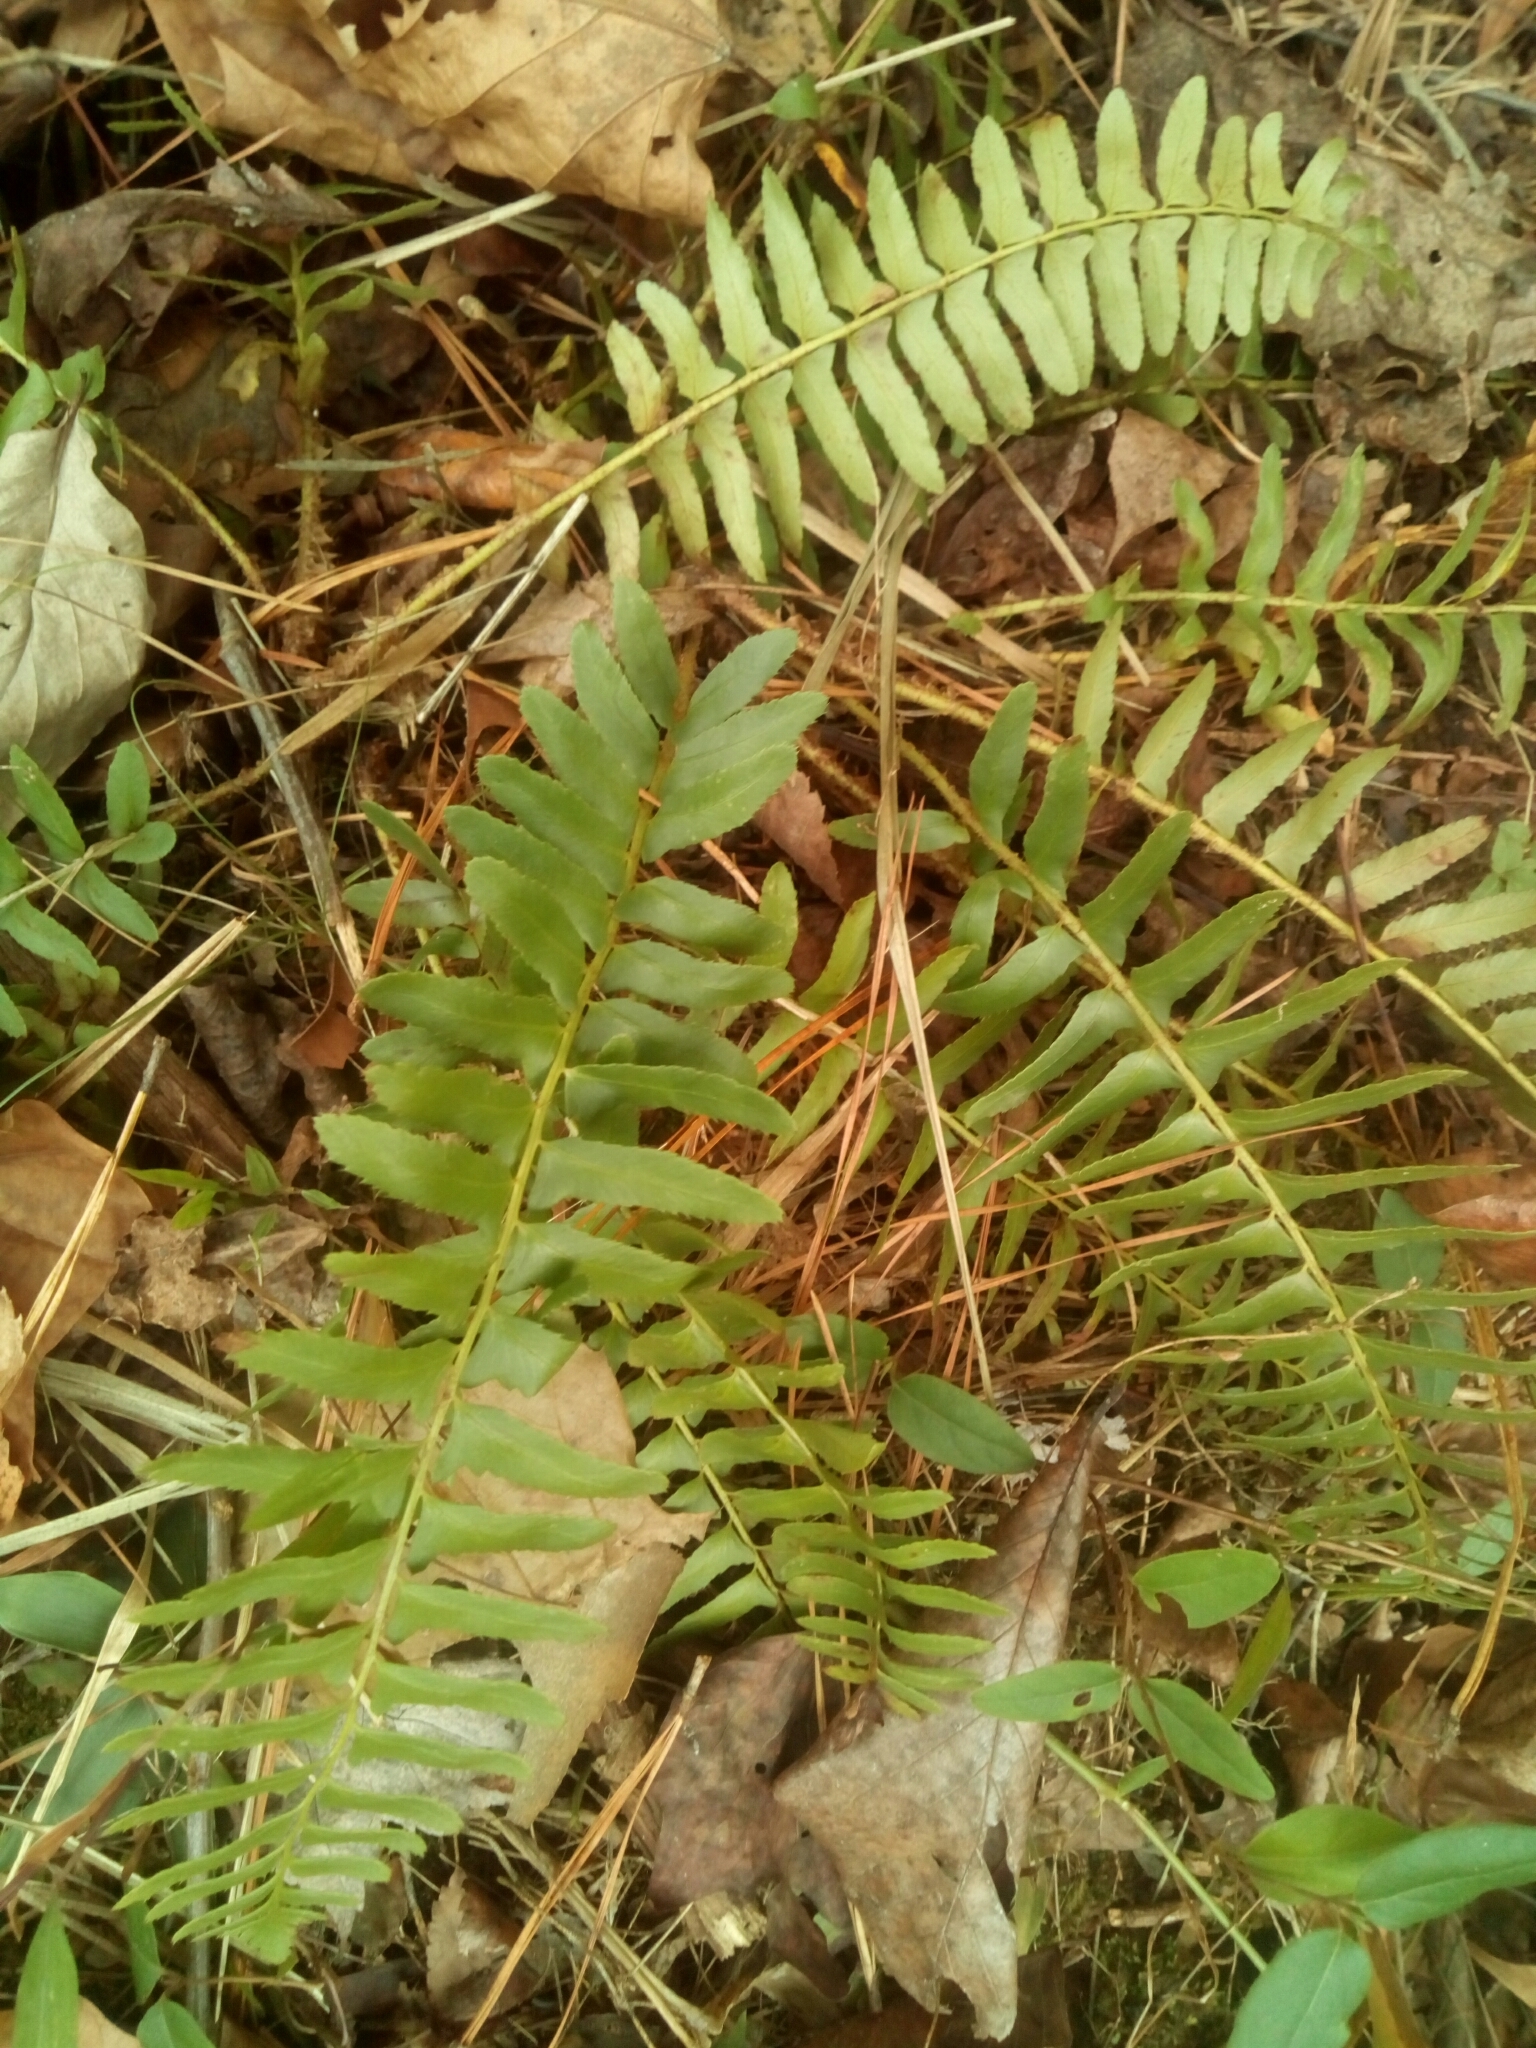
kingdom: Plantae
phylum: Tracheophyta
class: Polypodiopsida
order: Polypodiales
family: Dryopteridaceae
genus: Polystichum
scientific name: Polystichum acrostichoides
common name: Christmas fern
